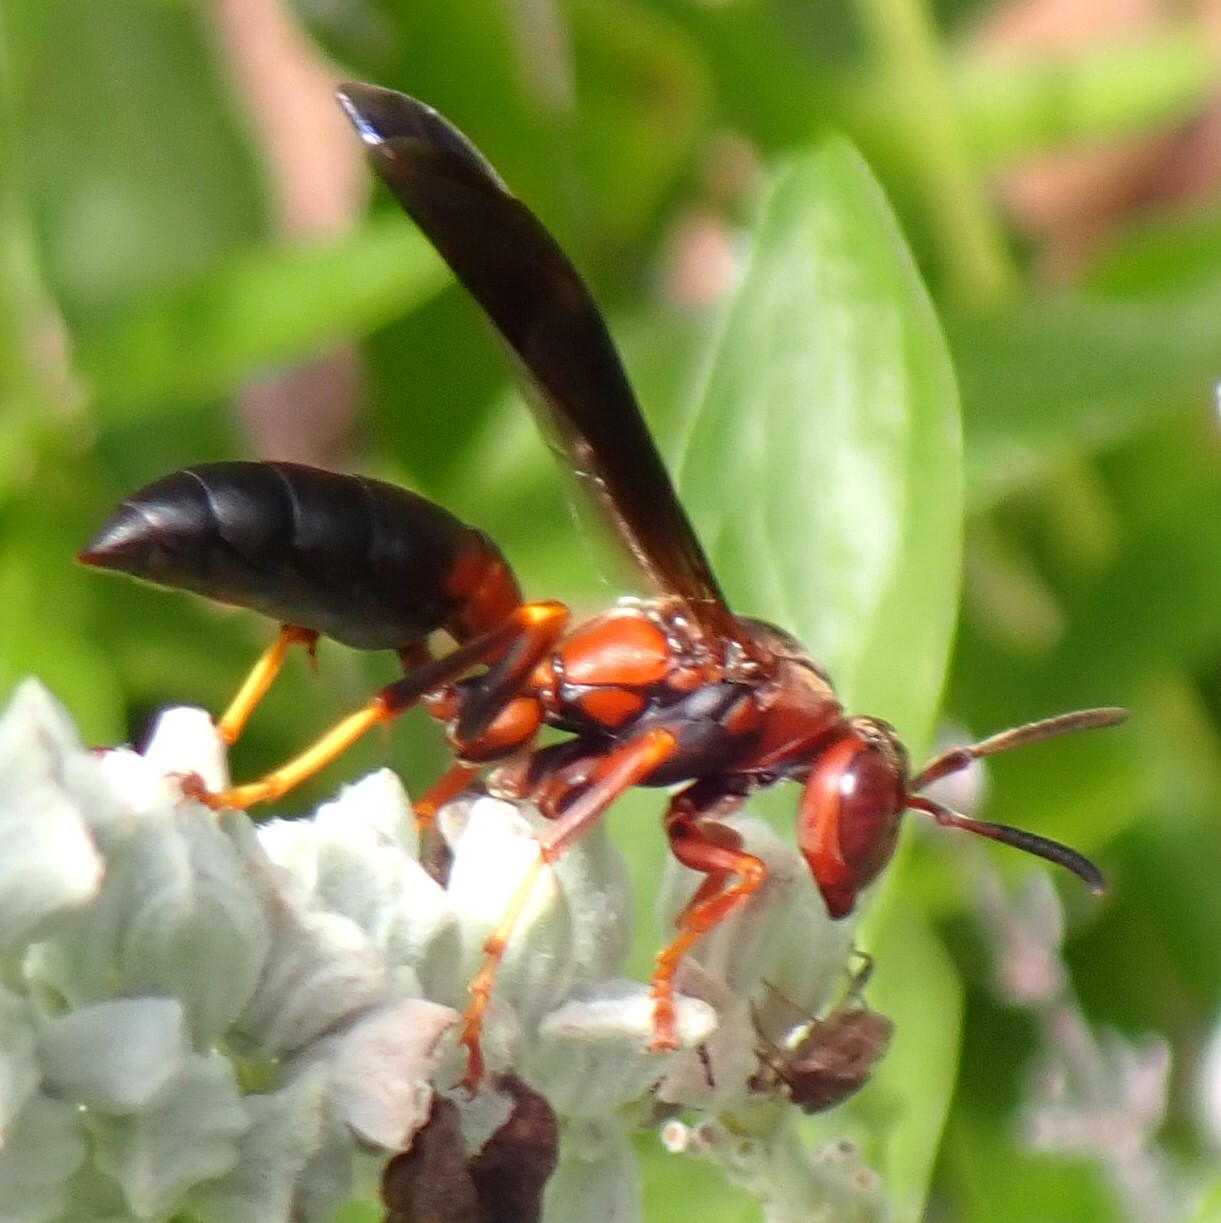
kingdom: Animalia
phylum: Arthropoda
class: Insecta
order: Hymenoptera
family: Eumenidae
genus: Polistes
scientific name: Polistes metricus
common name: Metric paper wasp
